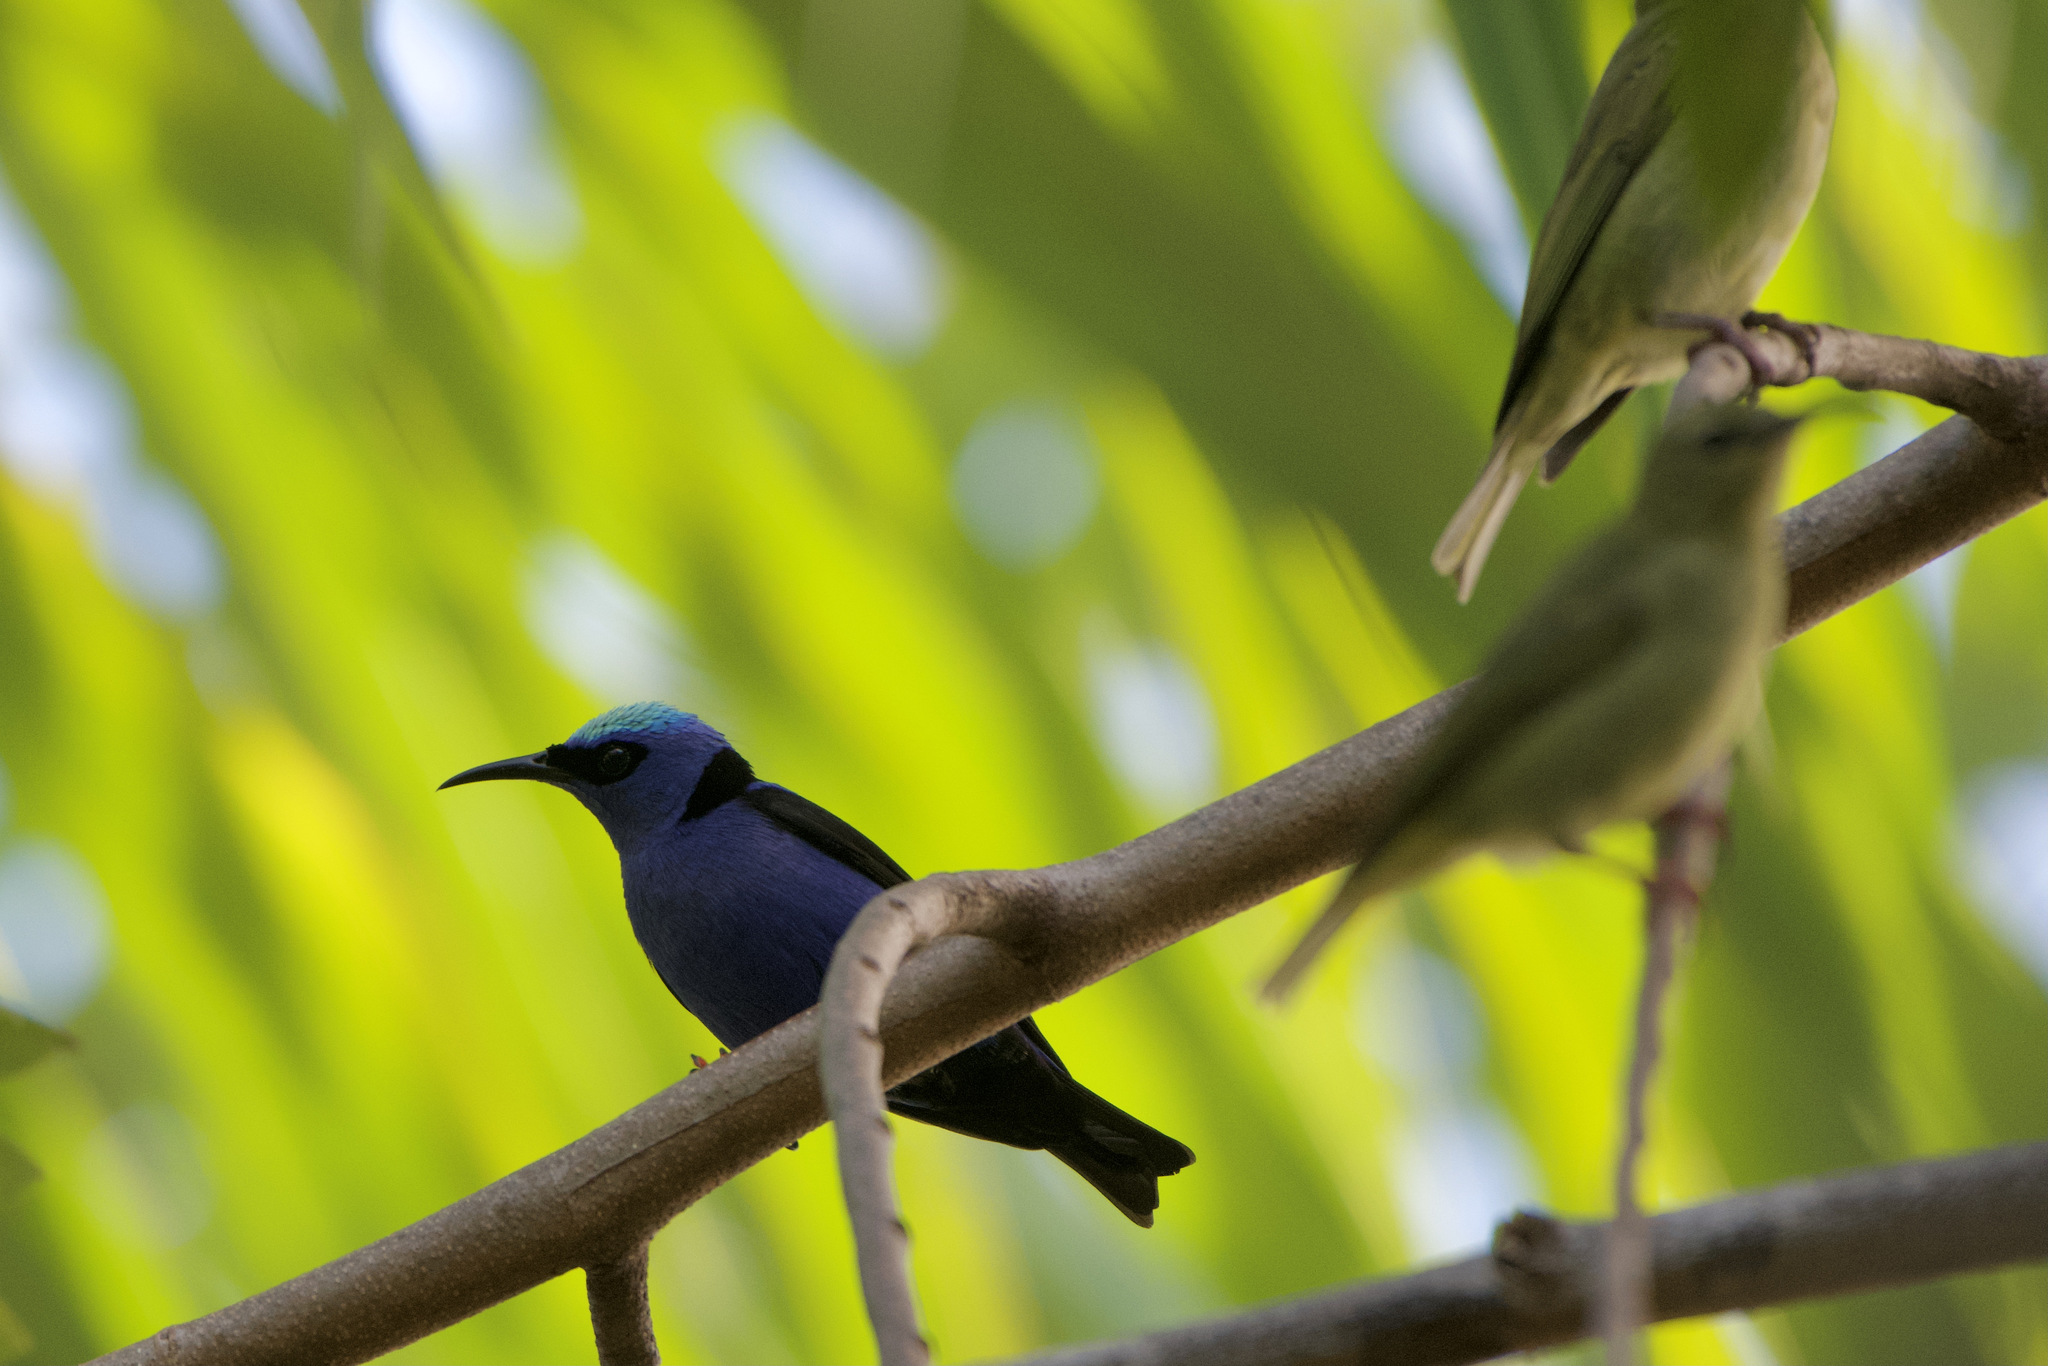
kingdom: Animalia
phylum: Chordata
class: Aves
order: Passeriformes
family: Thraupidae
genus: Cyanerpes
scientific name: Cyanerpes cyaneus
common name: Red-legged honeycreeper
